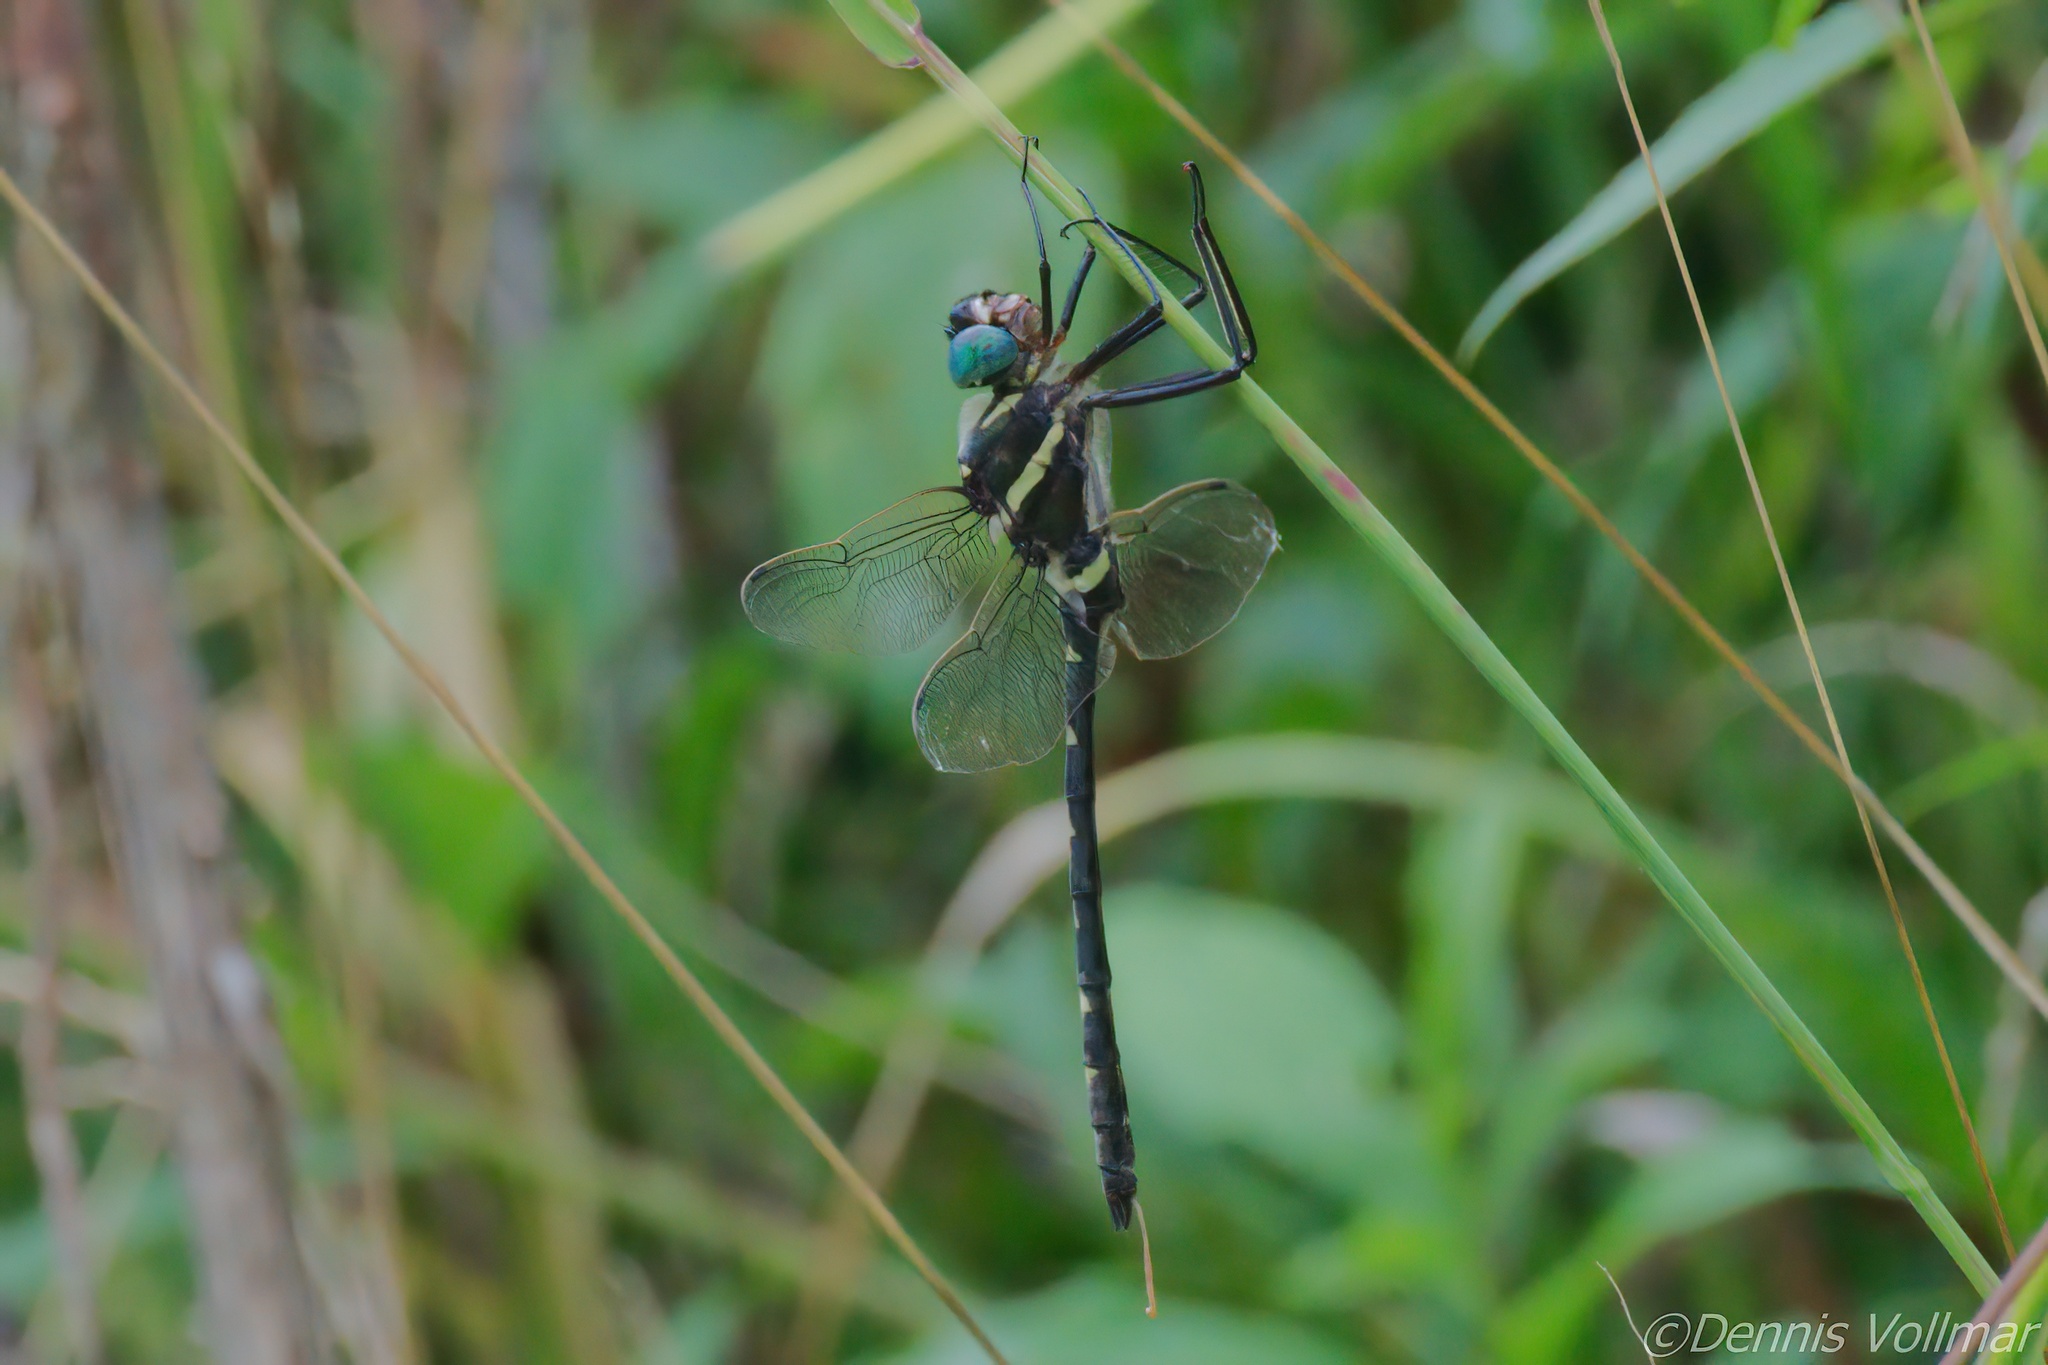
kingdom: Animalia
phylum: Arthropoda
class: Insecta
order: Odonata
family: Macromiidae
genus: Macromia
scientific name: Macromia
